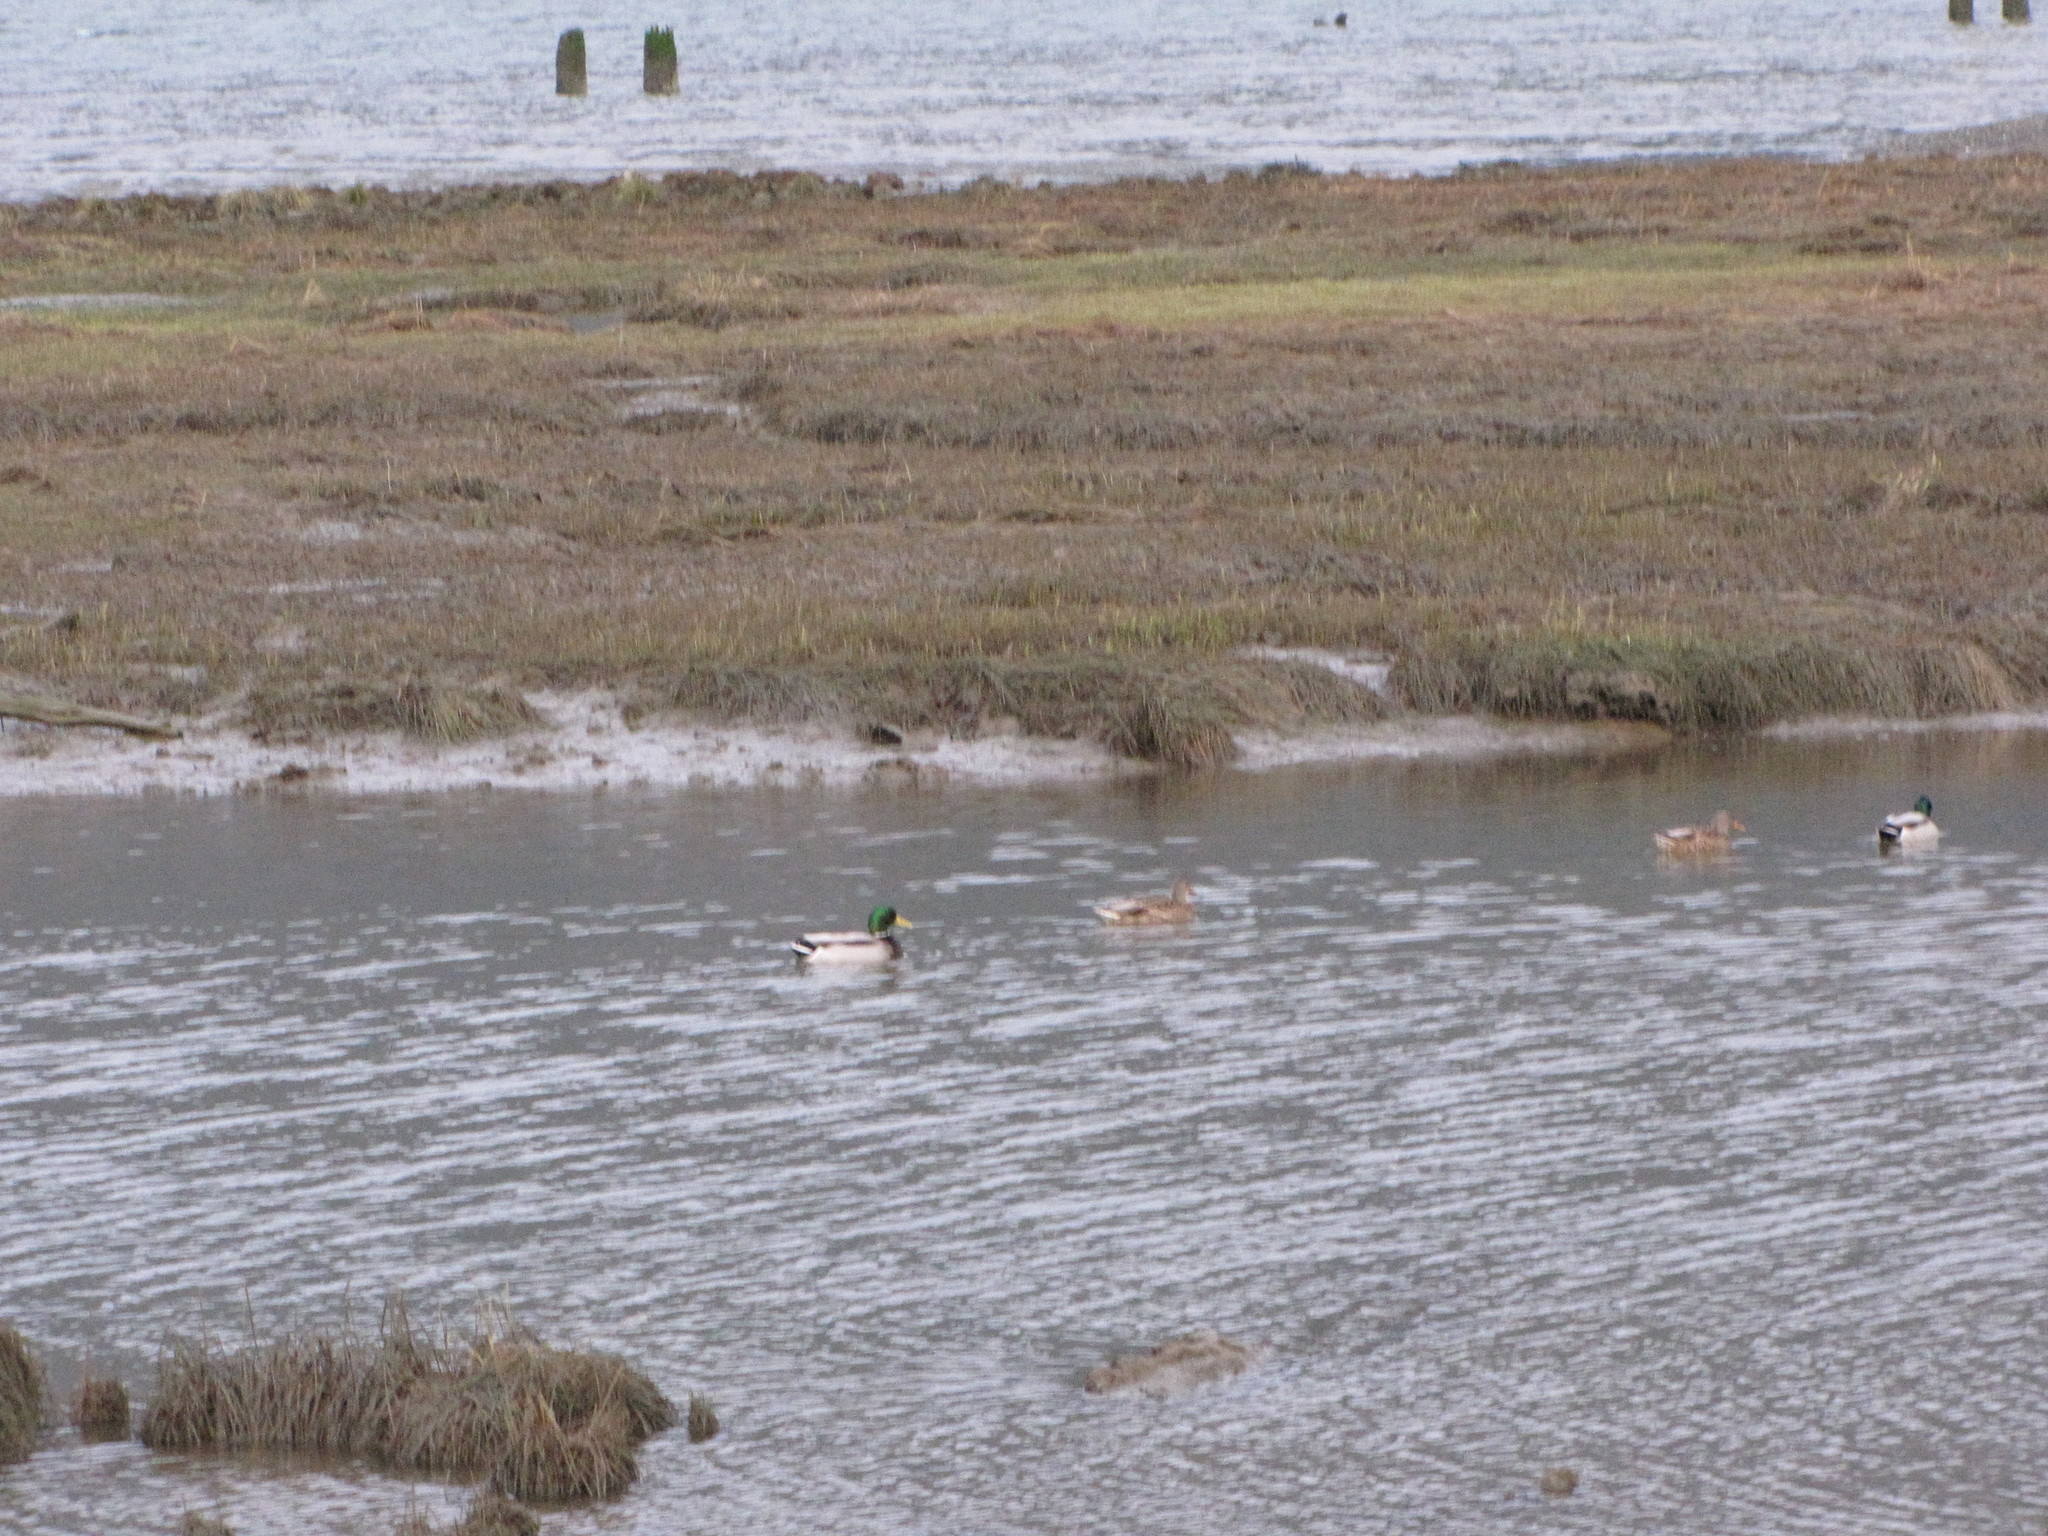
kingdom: Animalia
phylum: Chordata
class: Aves
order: Anseriformes
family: Anatidae
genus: Anas
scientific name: Anas platyrhynchos
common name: Mallard
